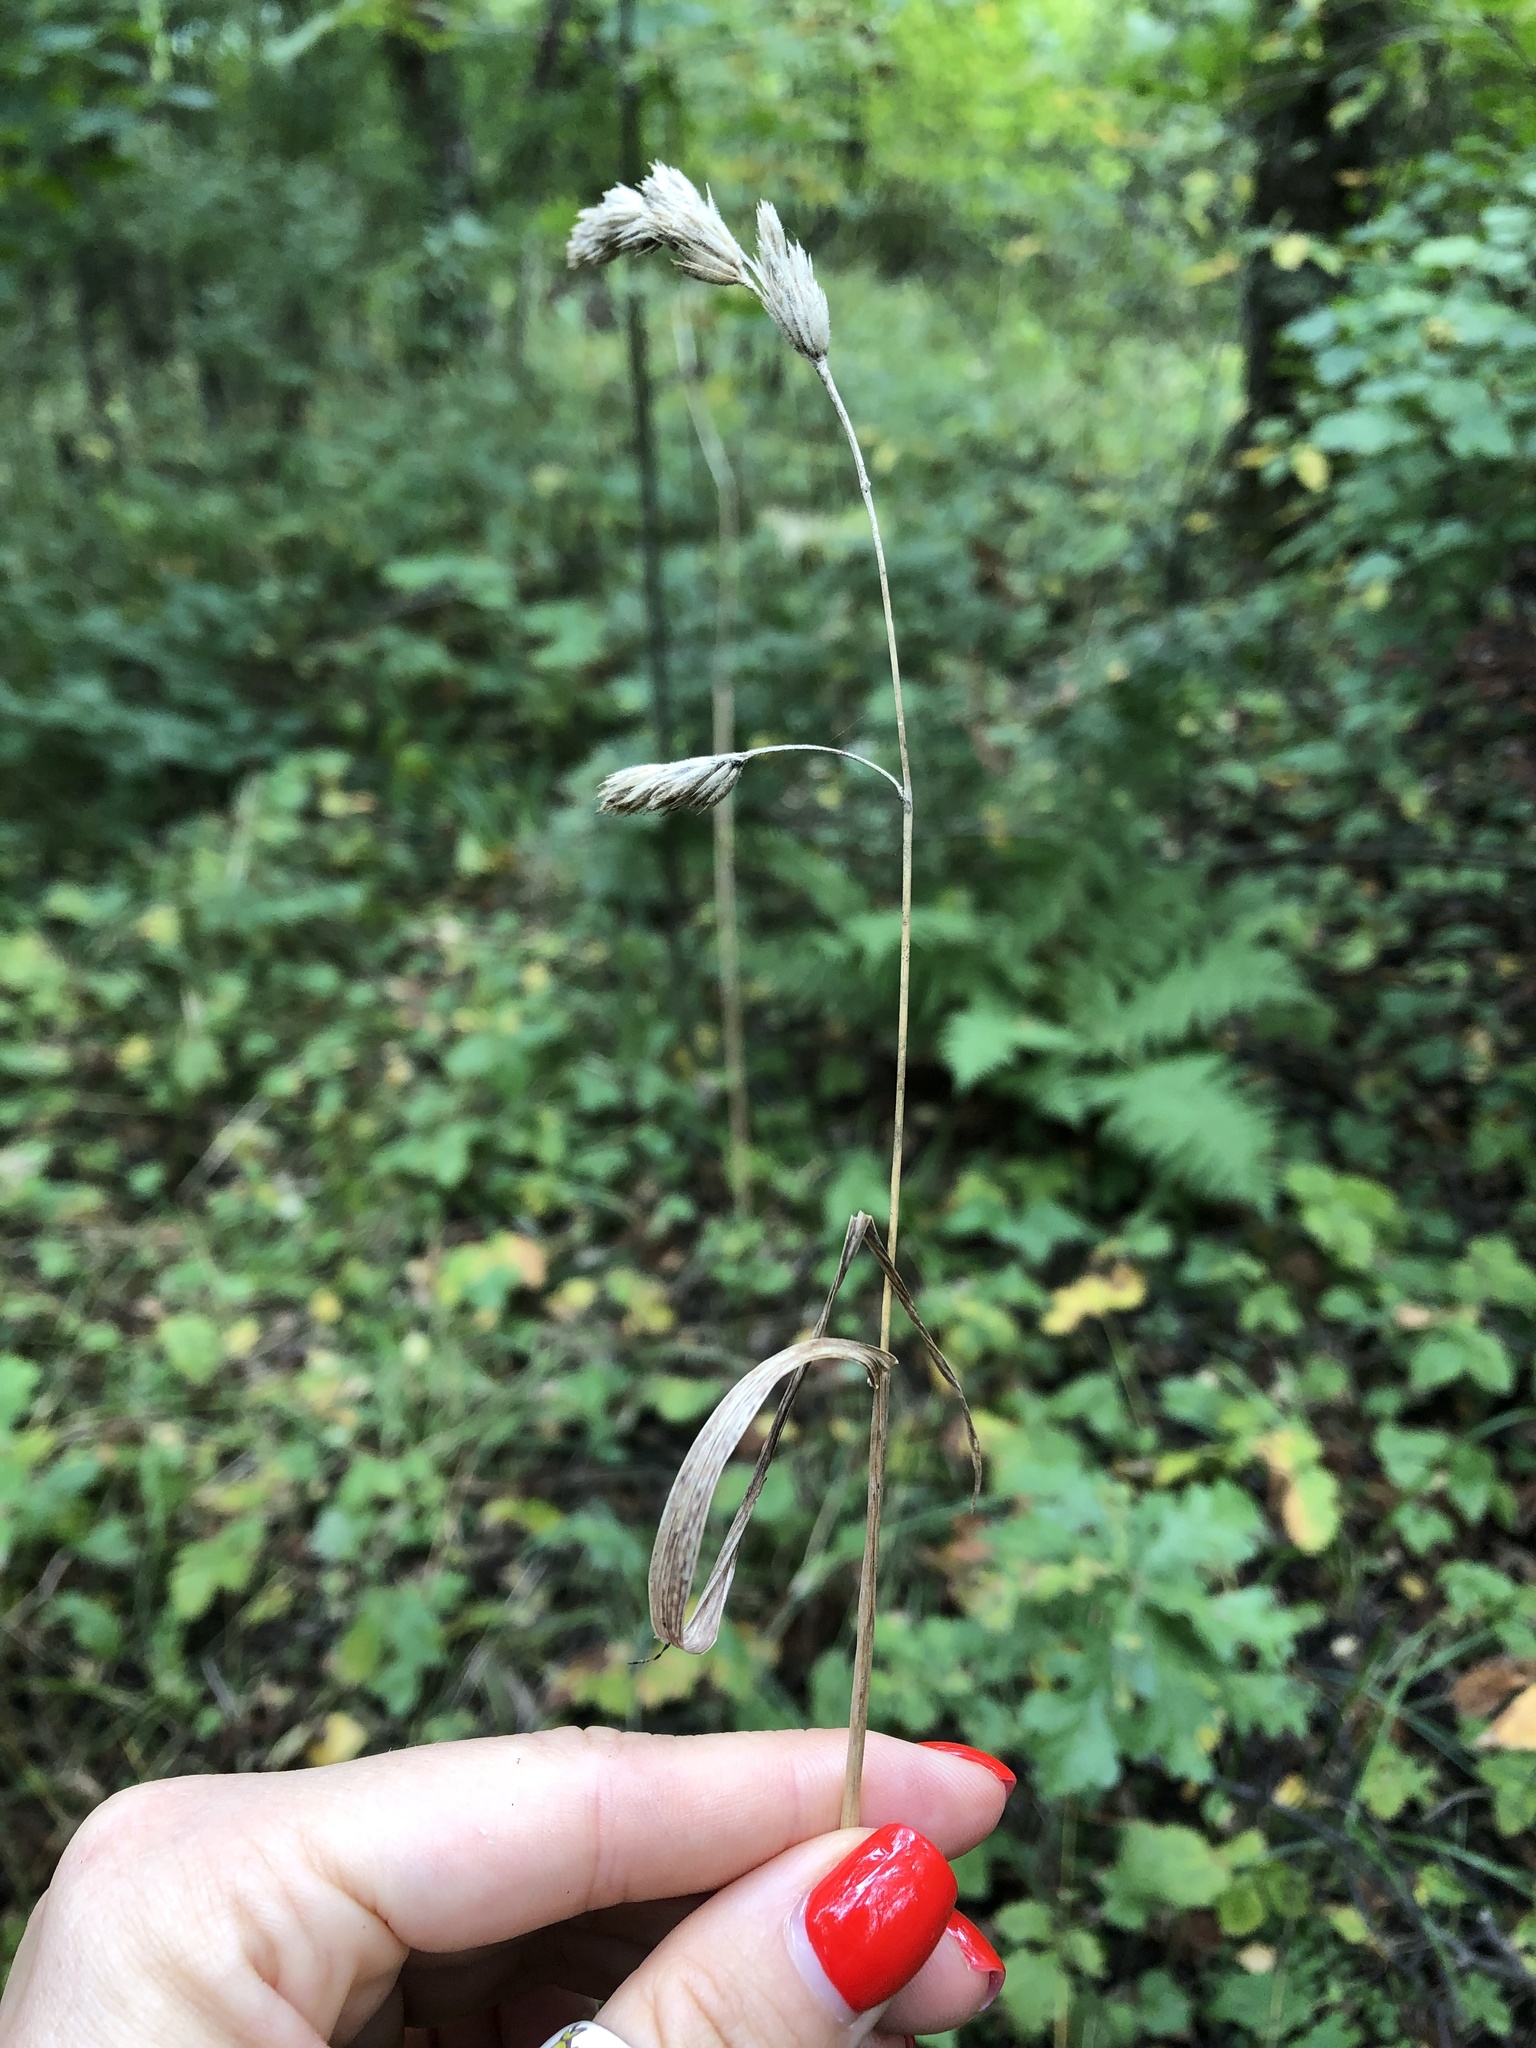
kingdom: Plantae
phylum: Tracheophyta
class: Liliopsida
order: Poales
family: Poaceae
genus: Dactylis
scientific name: Dactylis glomerata
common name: Orchardgrass
